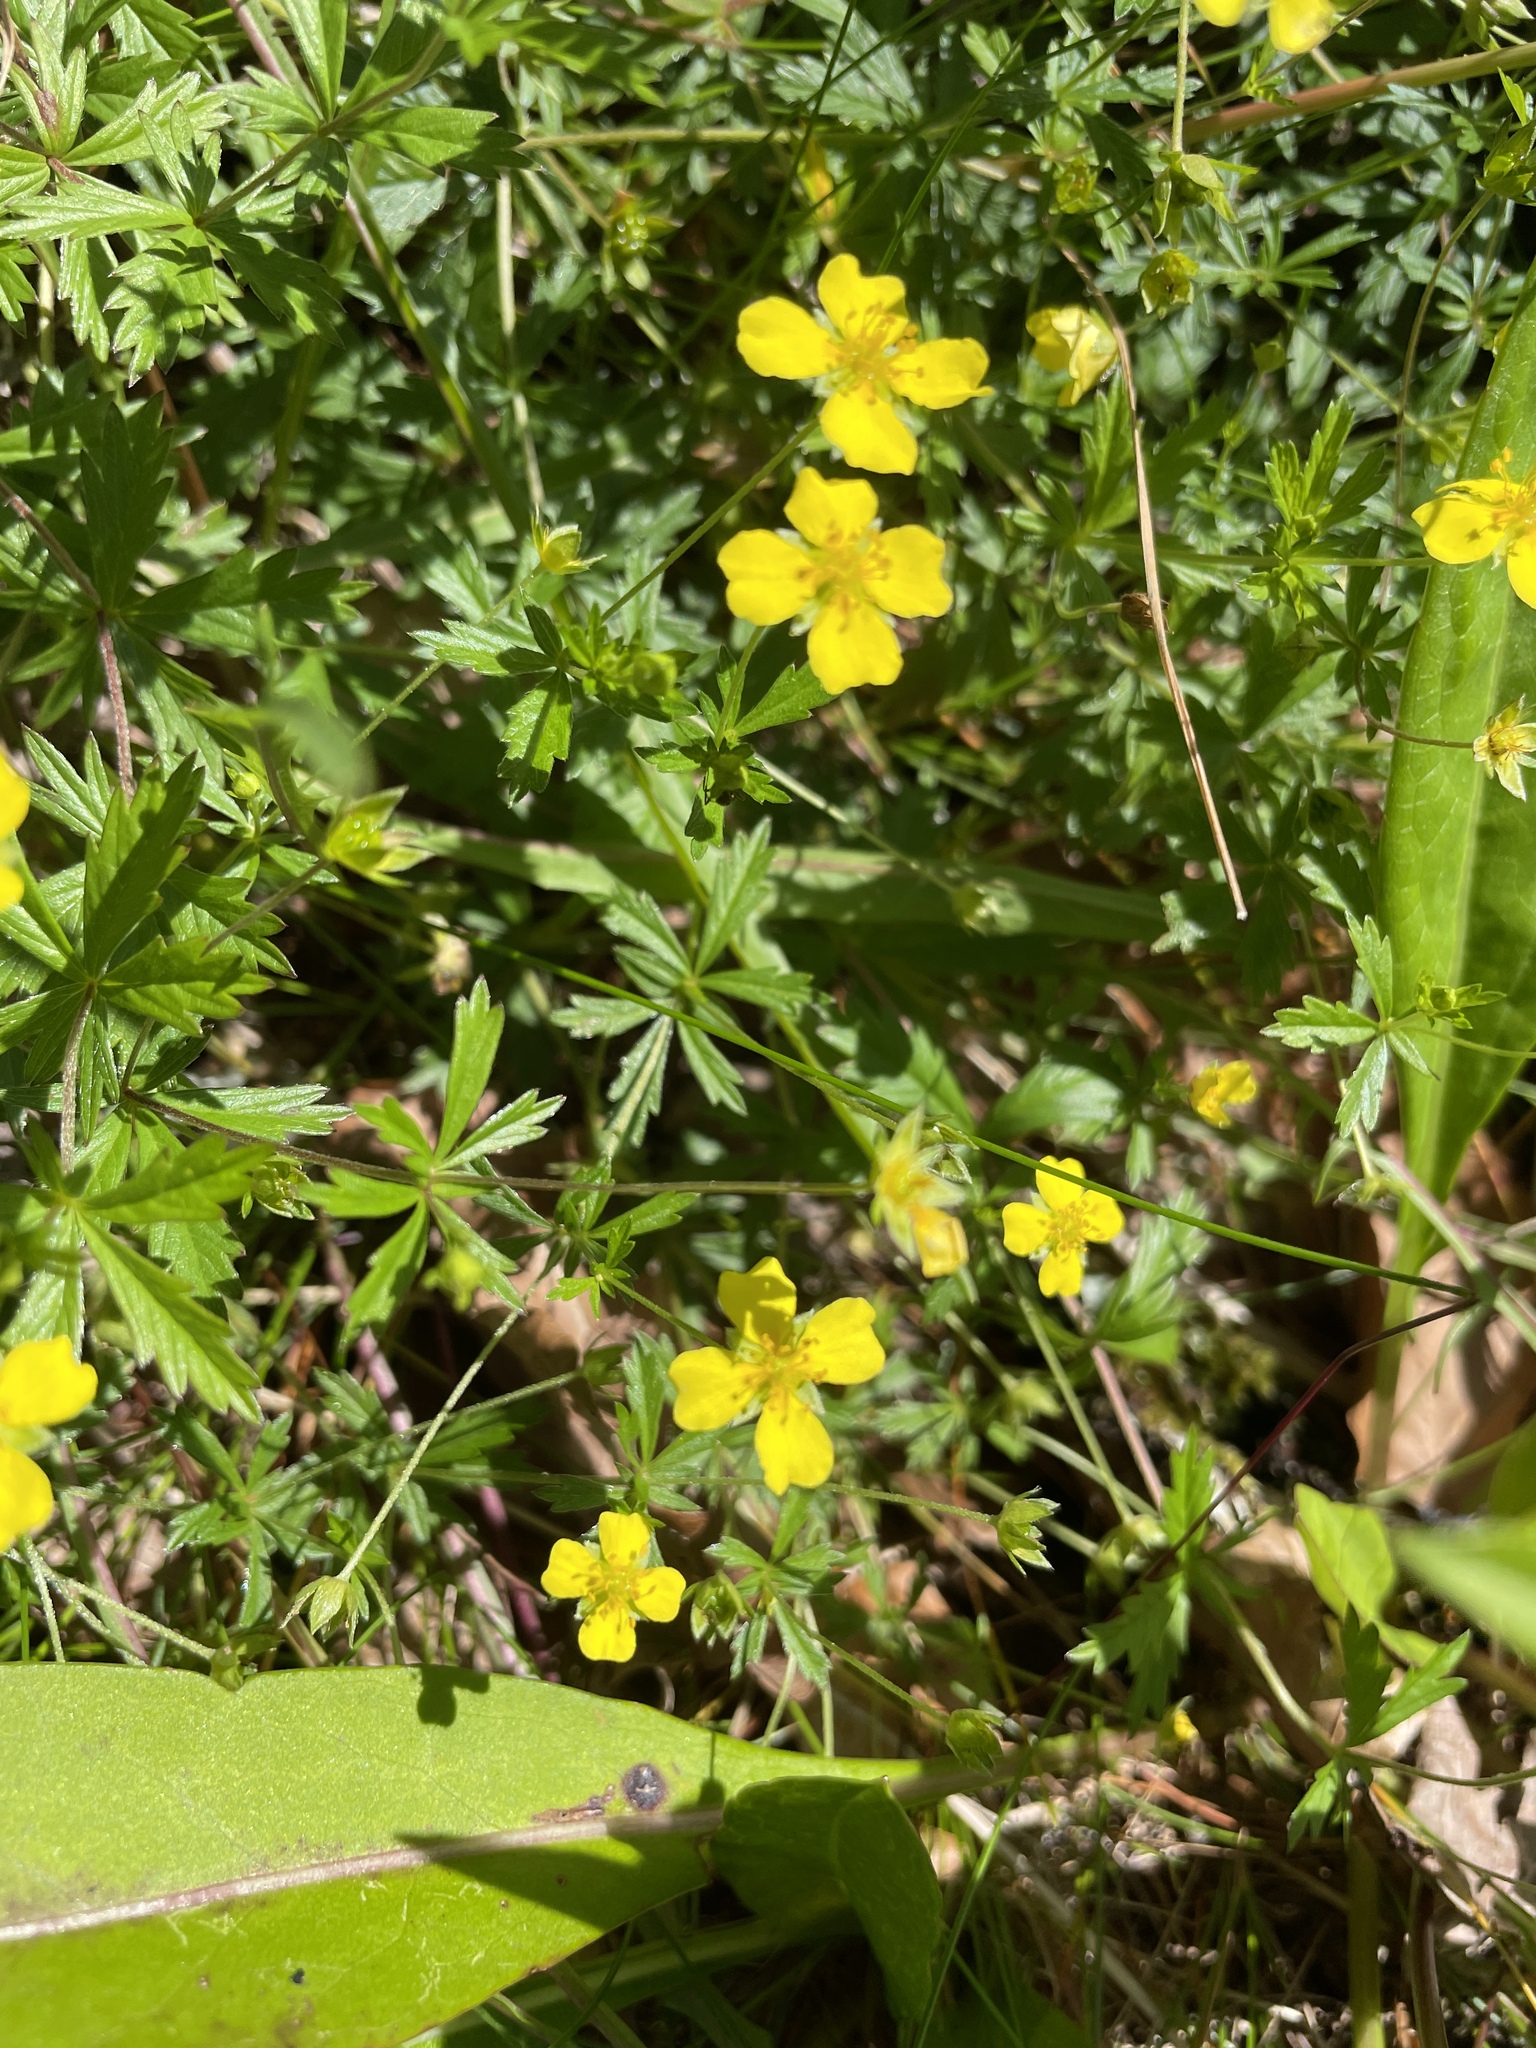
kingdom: Plantae
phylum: Tracheophyta
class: Magnoliopsida
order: Rosales
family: Rosaceae
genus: Potentilla
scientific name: Potentilla erecta
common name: Tormentil
